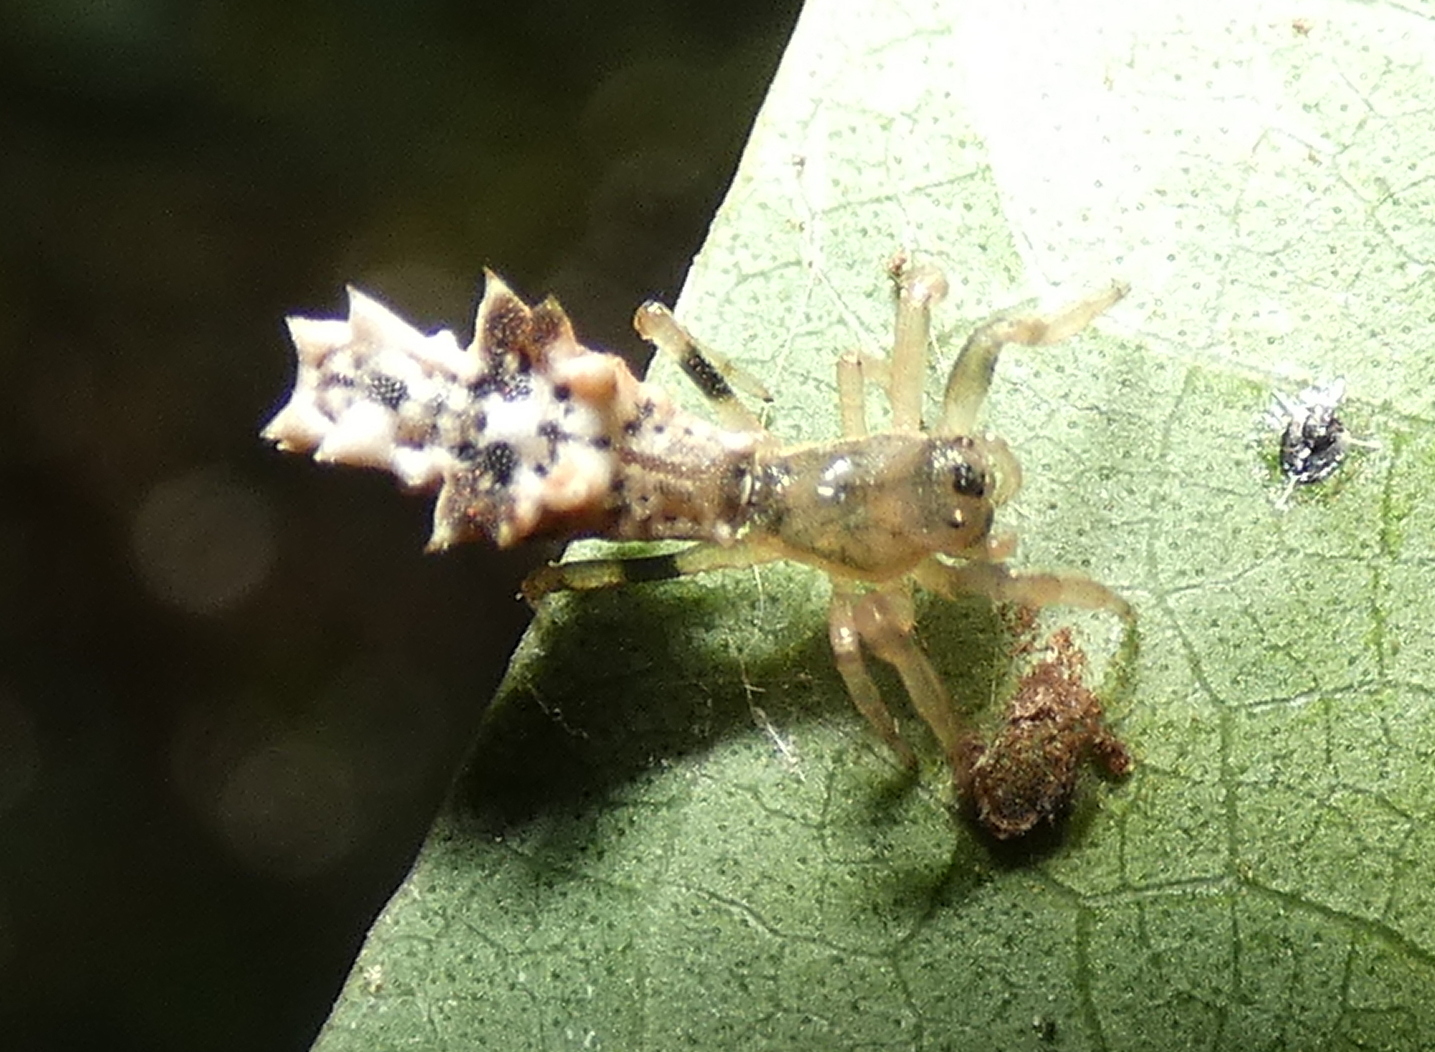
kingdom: Animalia
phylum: Arthropoda
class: Arachnida
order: Araneae
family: Araneidae
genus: Micrathena
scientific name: Micrathena horrida
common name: Orb weavers
